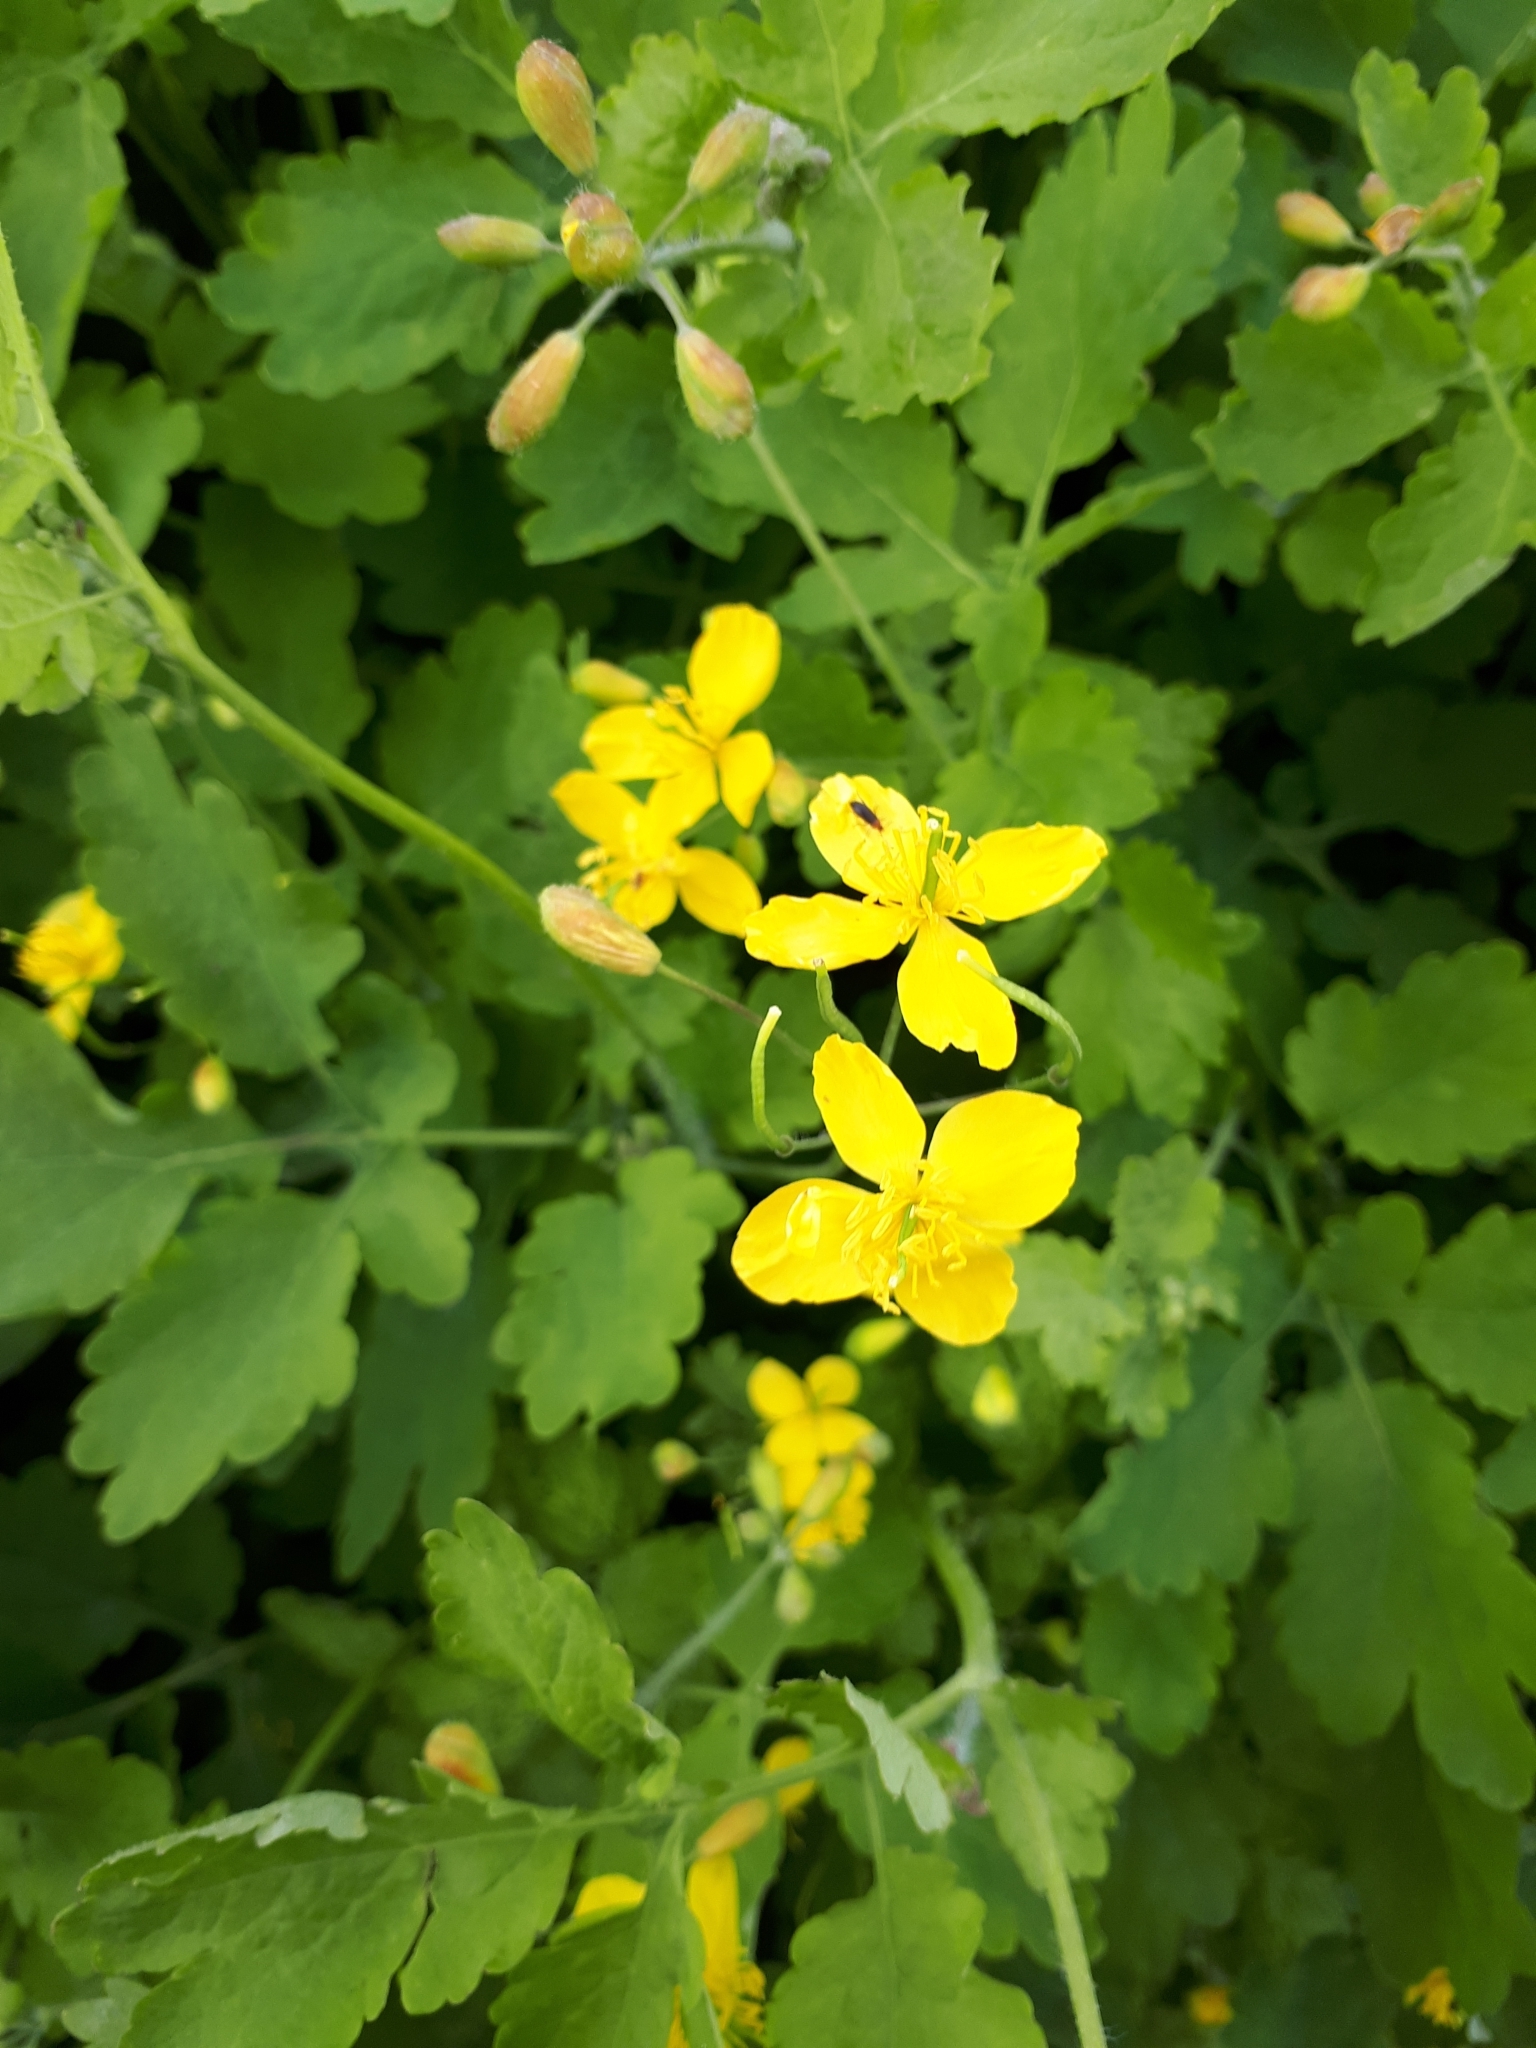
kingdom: Plantae
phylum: Tracheophyta
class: Magnoliopsida
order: Ranunculales
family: Papaveraceae
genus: Chelidonium
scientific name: Chelidonium majus
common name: Greater celandine
